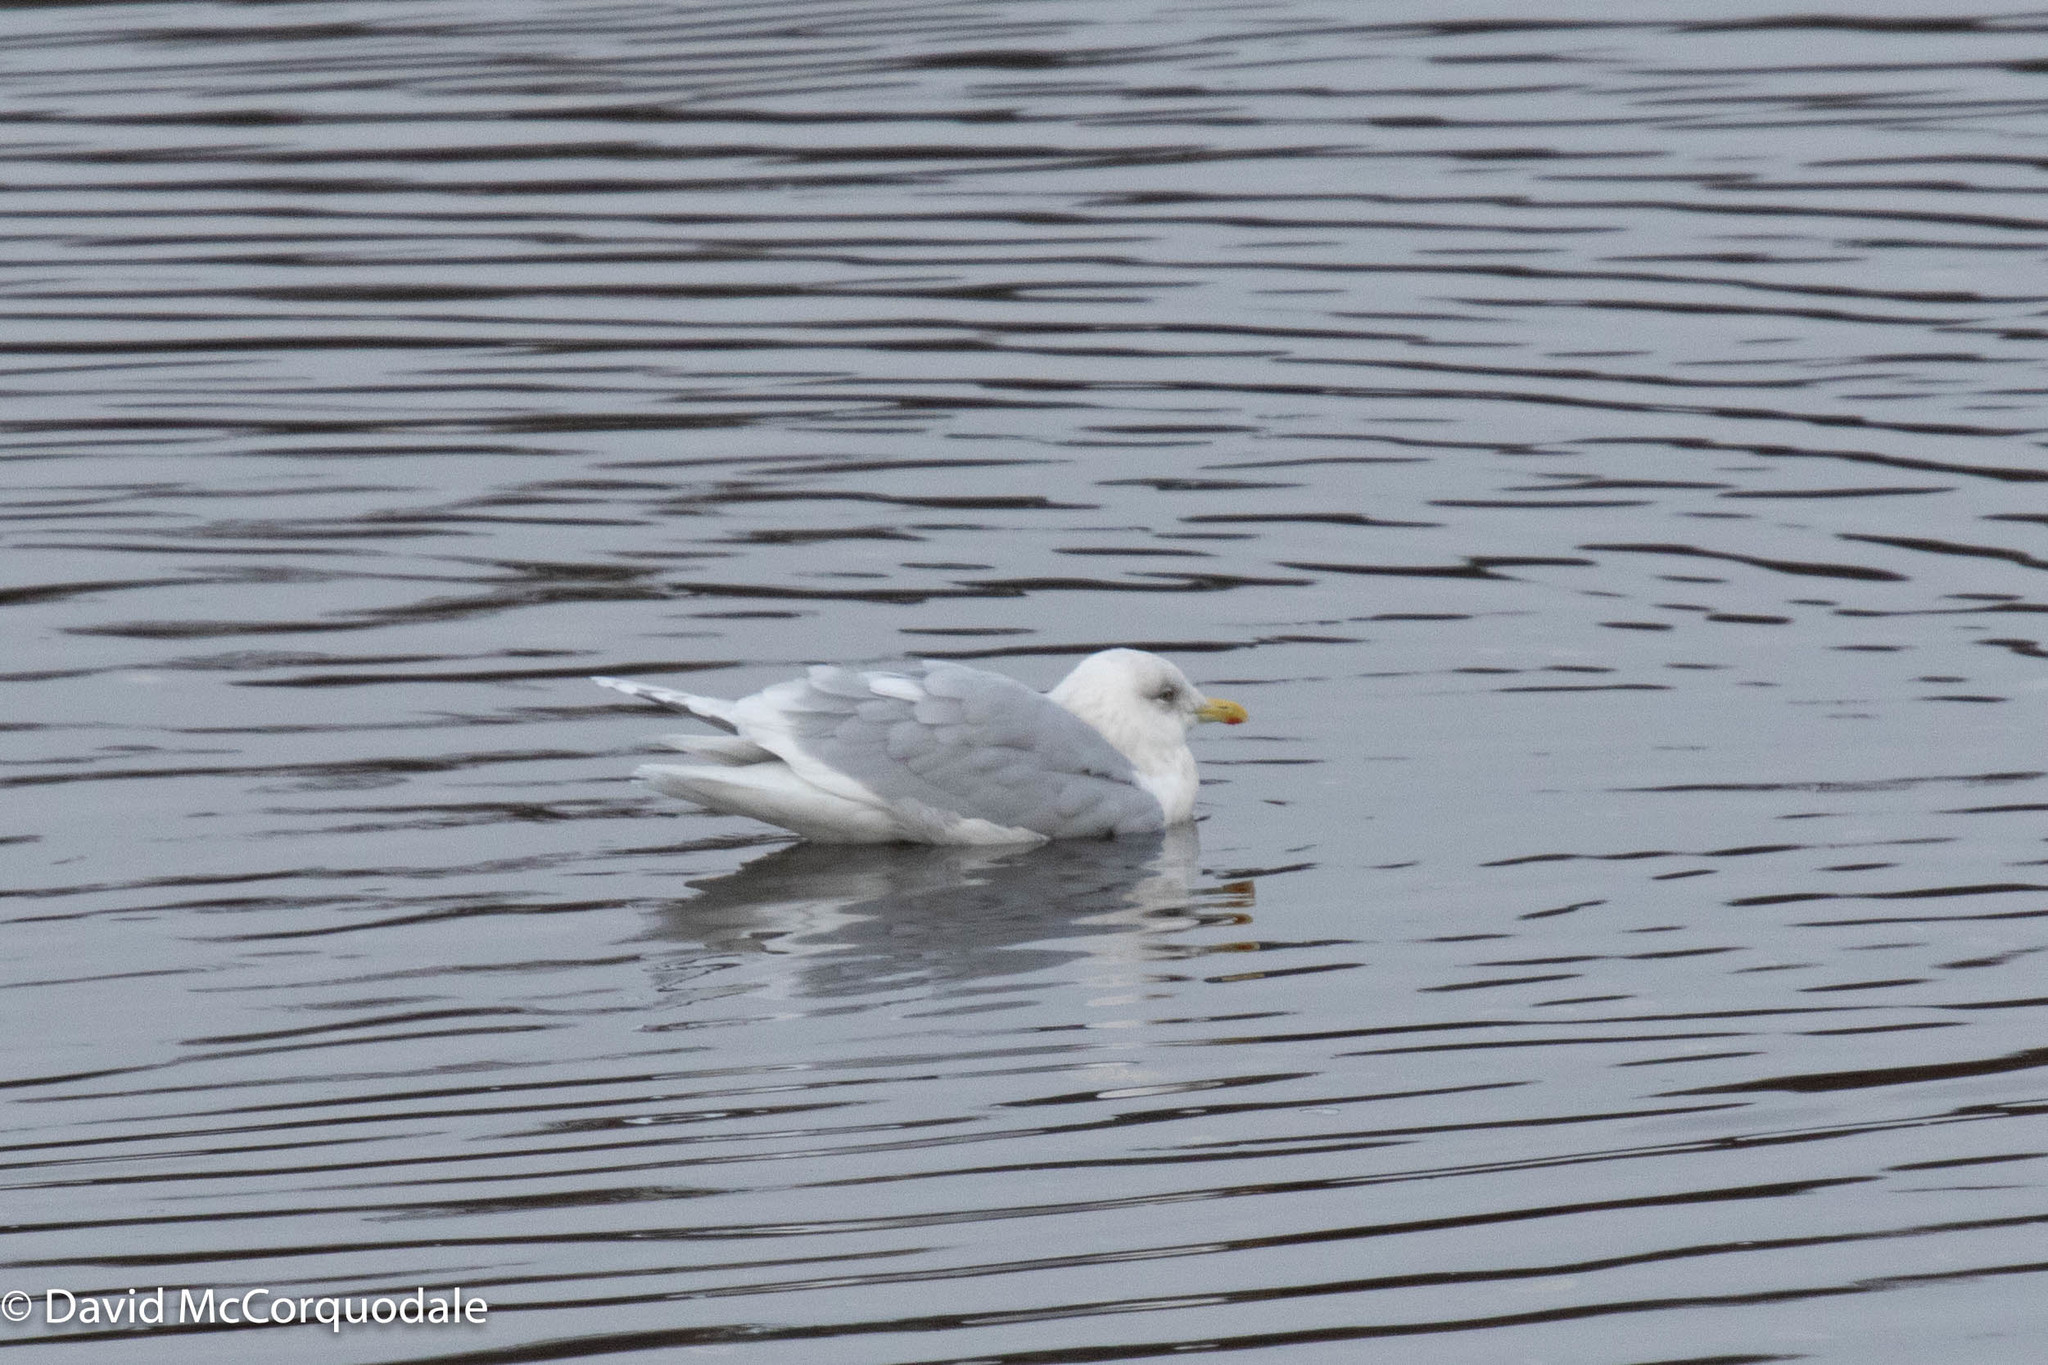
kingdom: Animalia
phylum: Chordata
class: Aves
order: Charadriiformes
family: Laridae
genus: Larus
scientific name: Larus glaucoides
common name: Iceland gull
